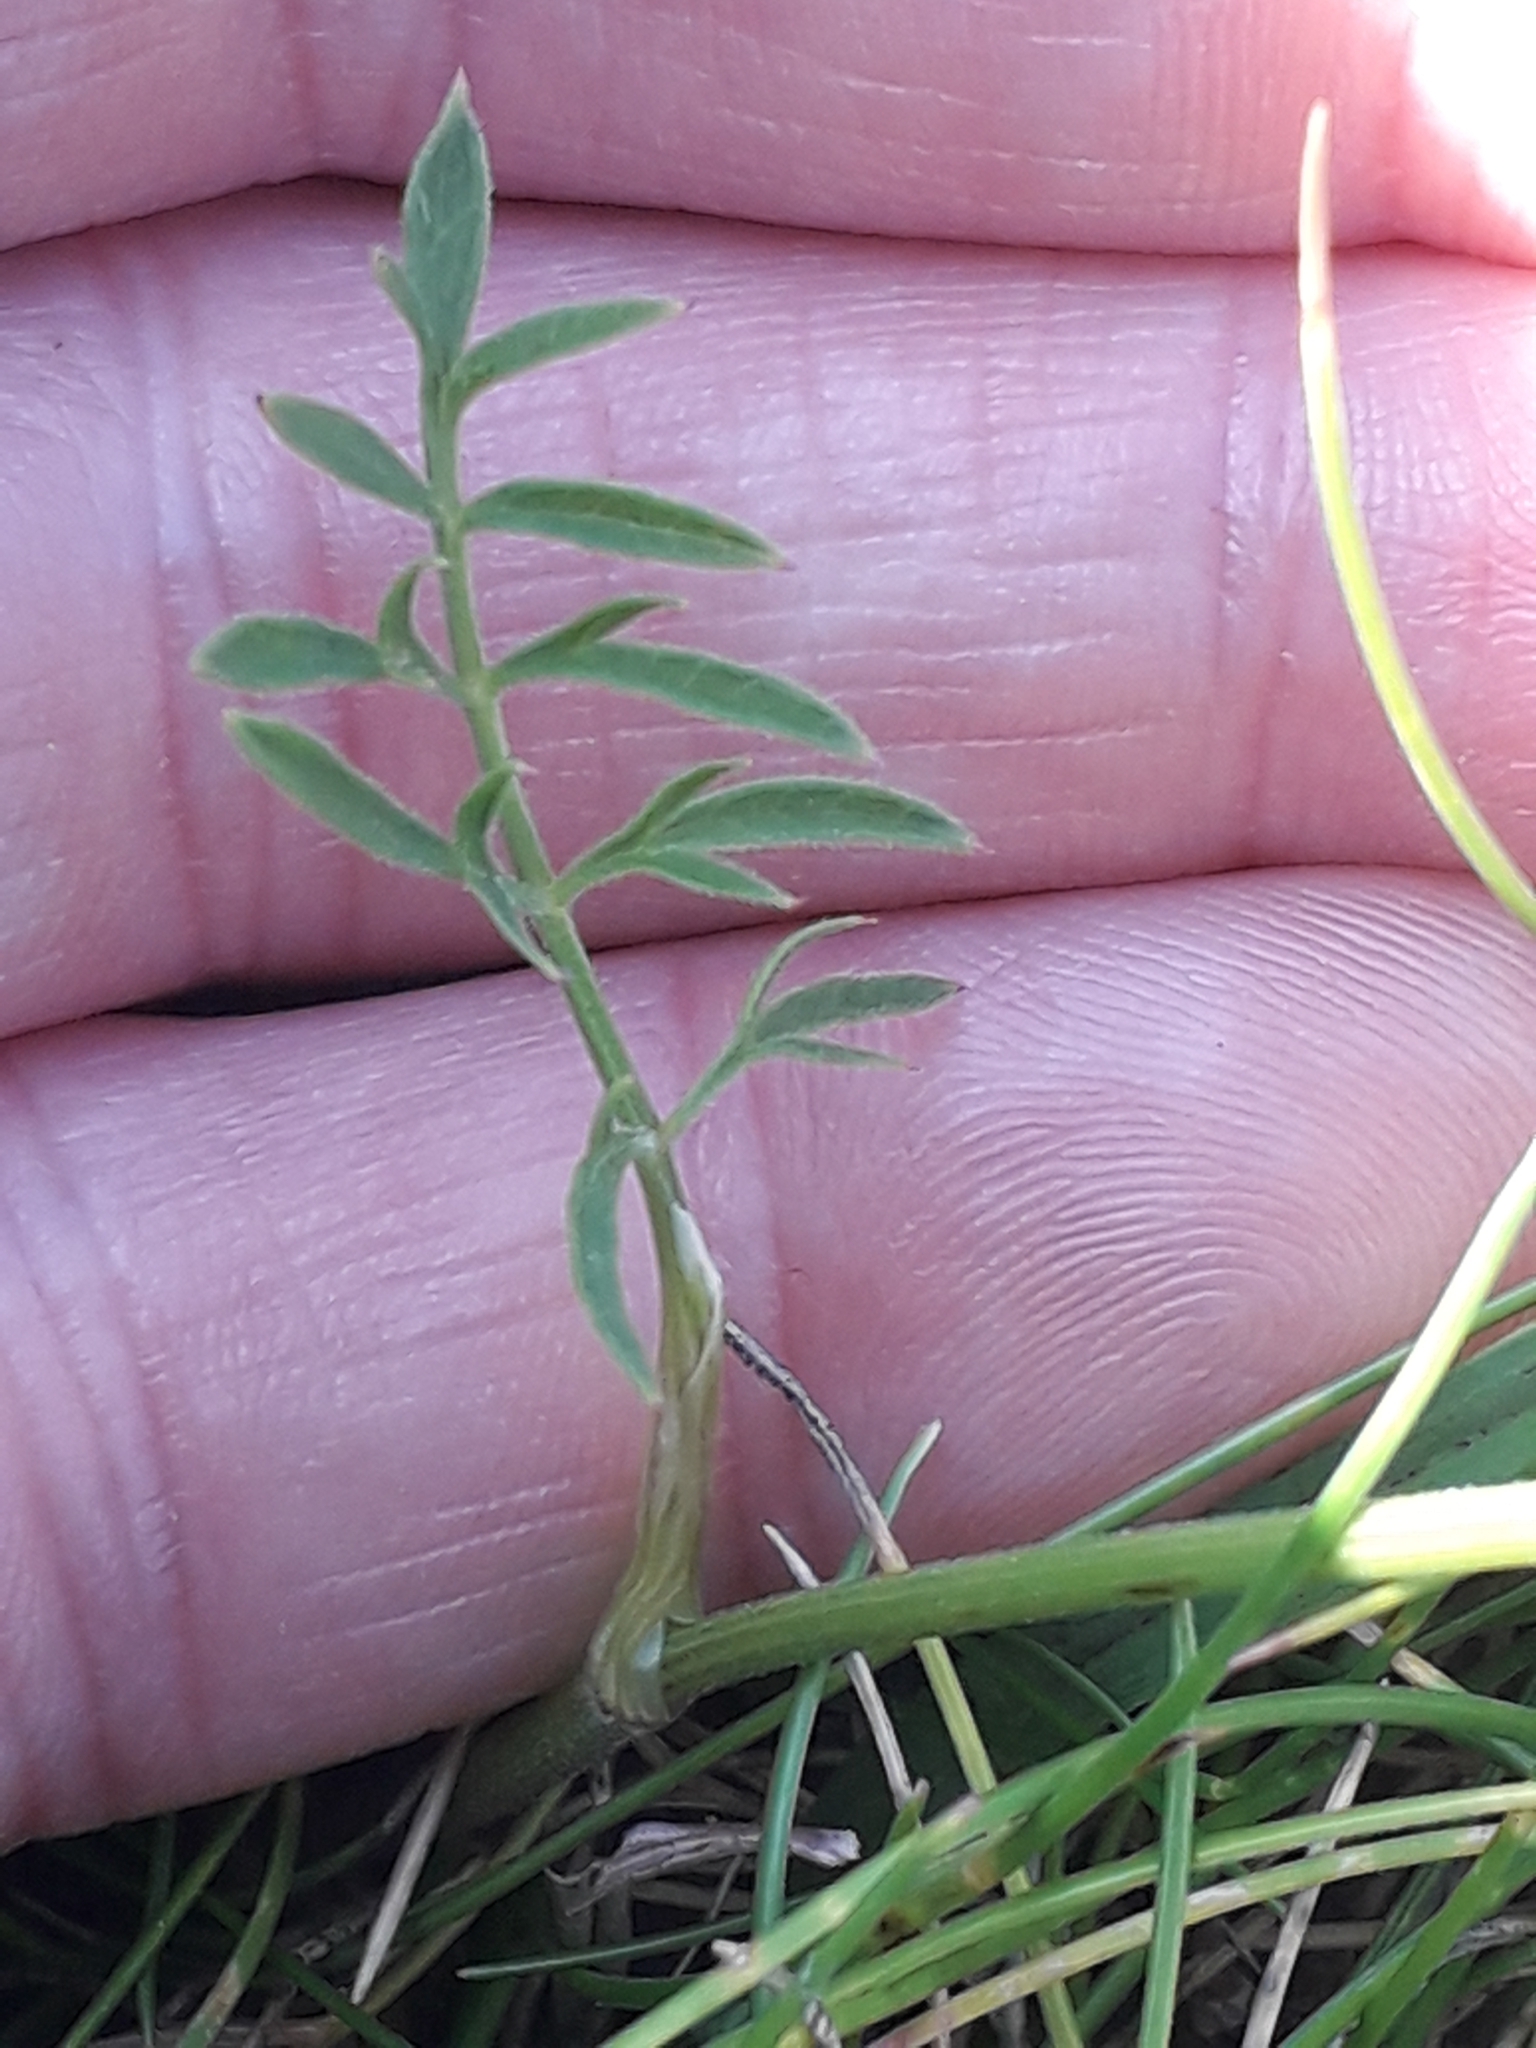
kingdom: Plantae
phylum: Tracheophyta
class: Magnoliopsida
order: Apiales
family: Apiaceae
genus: Conopodium
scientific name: Conopodium majus
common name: Pignut
